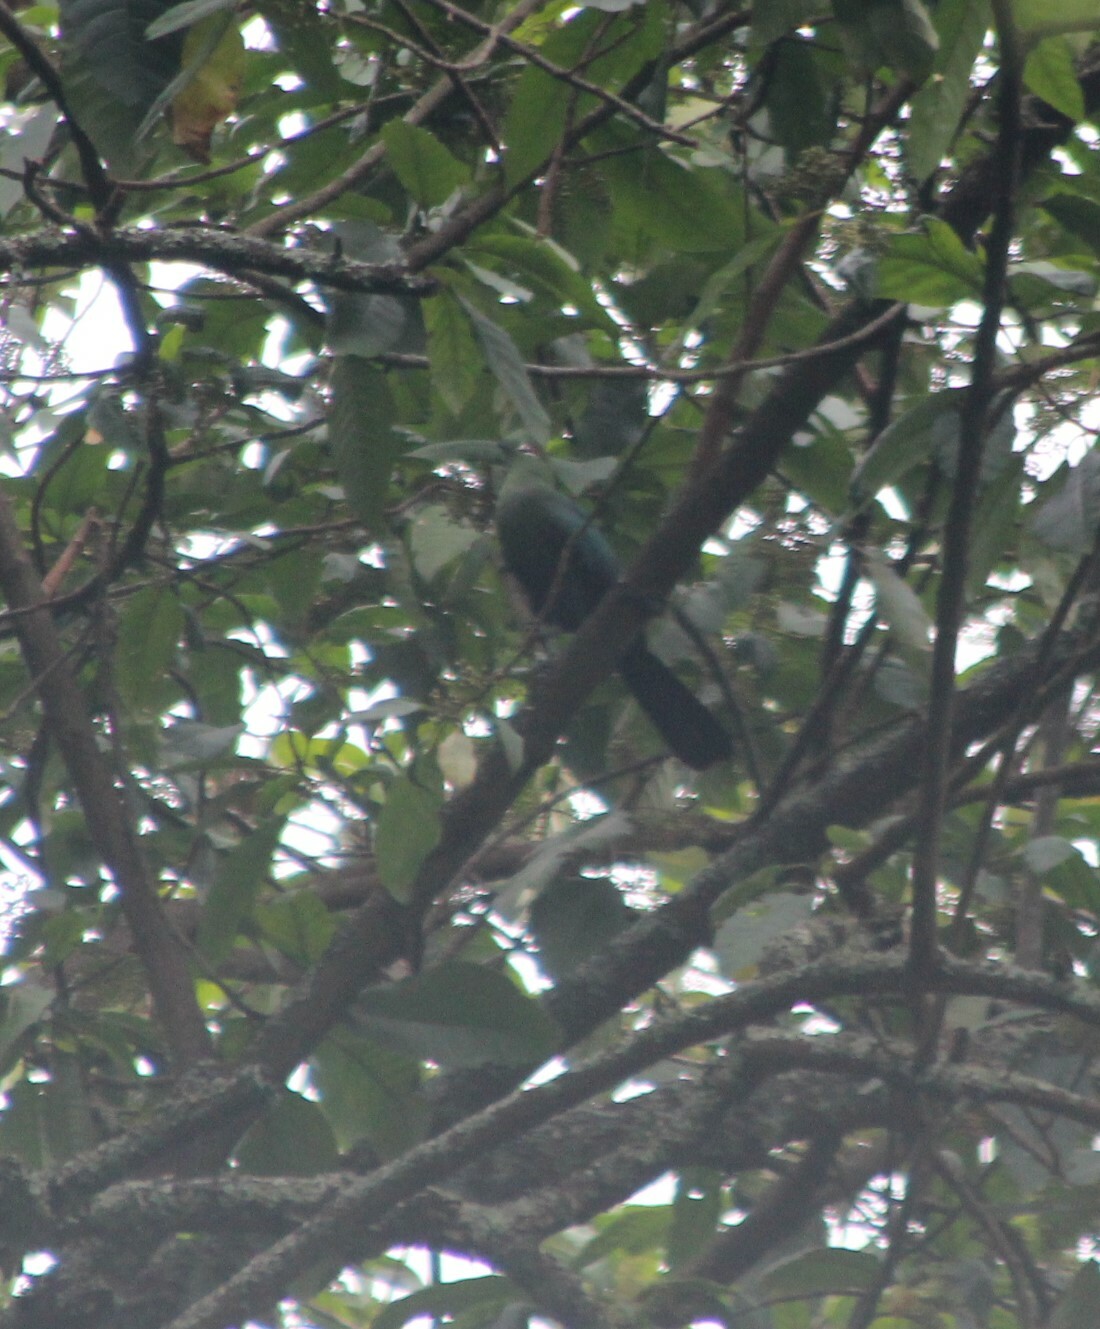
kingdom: Animalia
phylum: Chordata
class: Aves
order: Musophagiformes
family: Musophagidae
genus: Tauraco
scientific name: Tauraco schuettii
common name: Black-billed turaco
